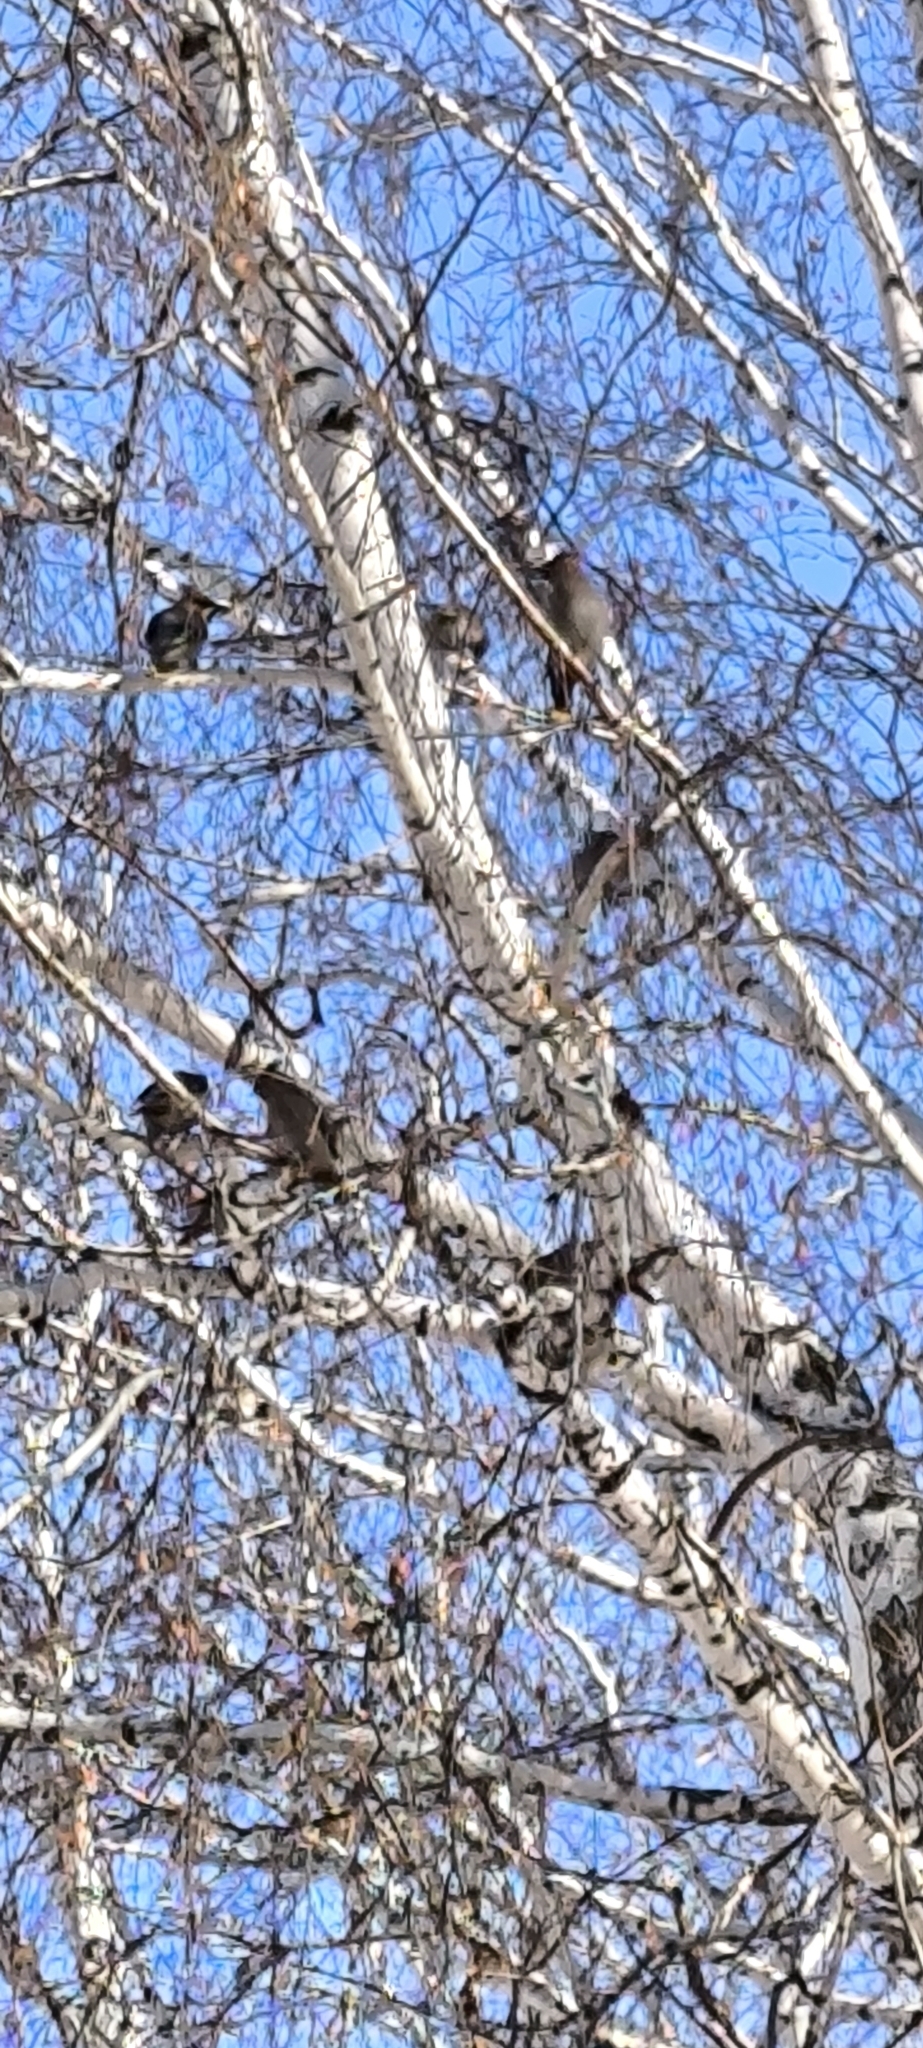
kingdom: Animalia
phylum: Chordata
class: Aves
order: Passeriformes
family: Bombycillidae
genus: Bombycilla
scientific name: Bombycilla garrulus
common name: Bohemian waxwing
